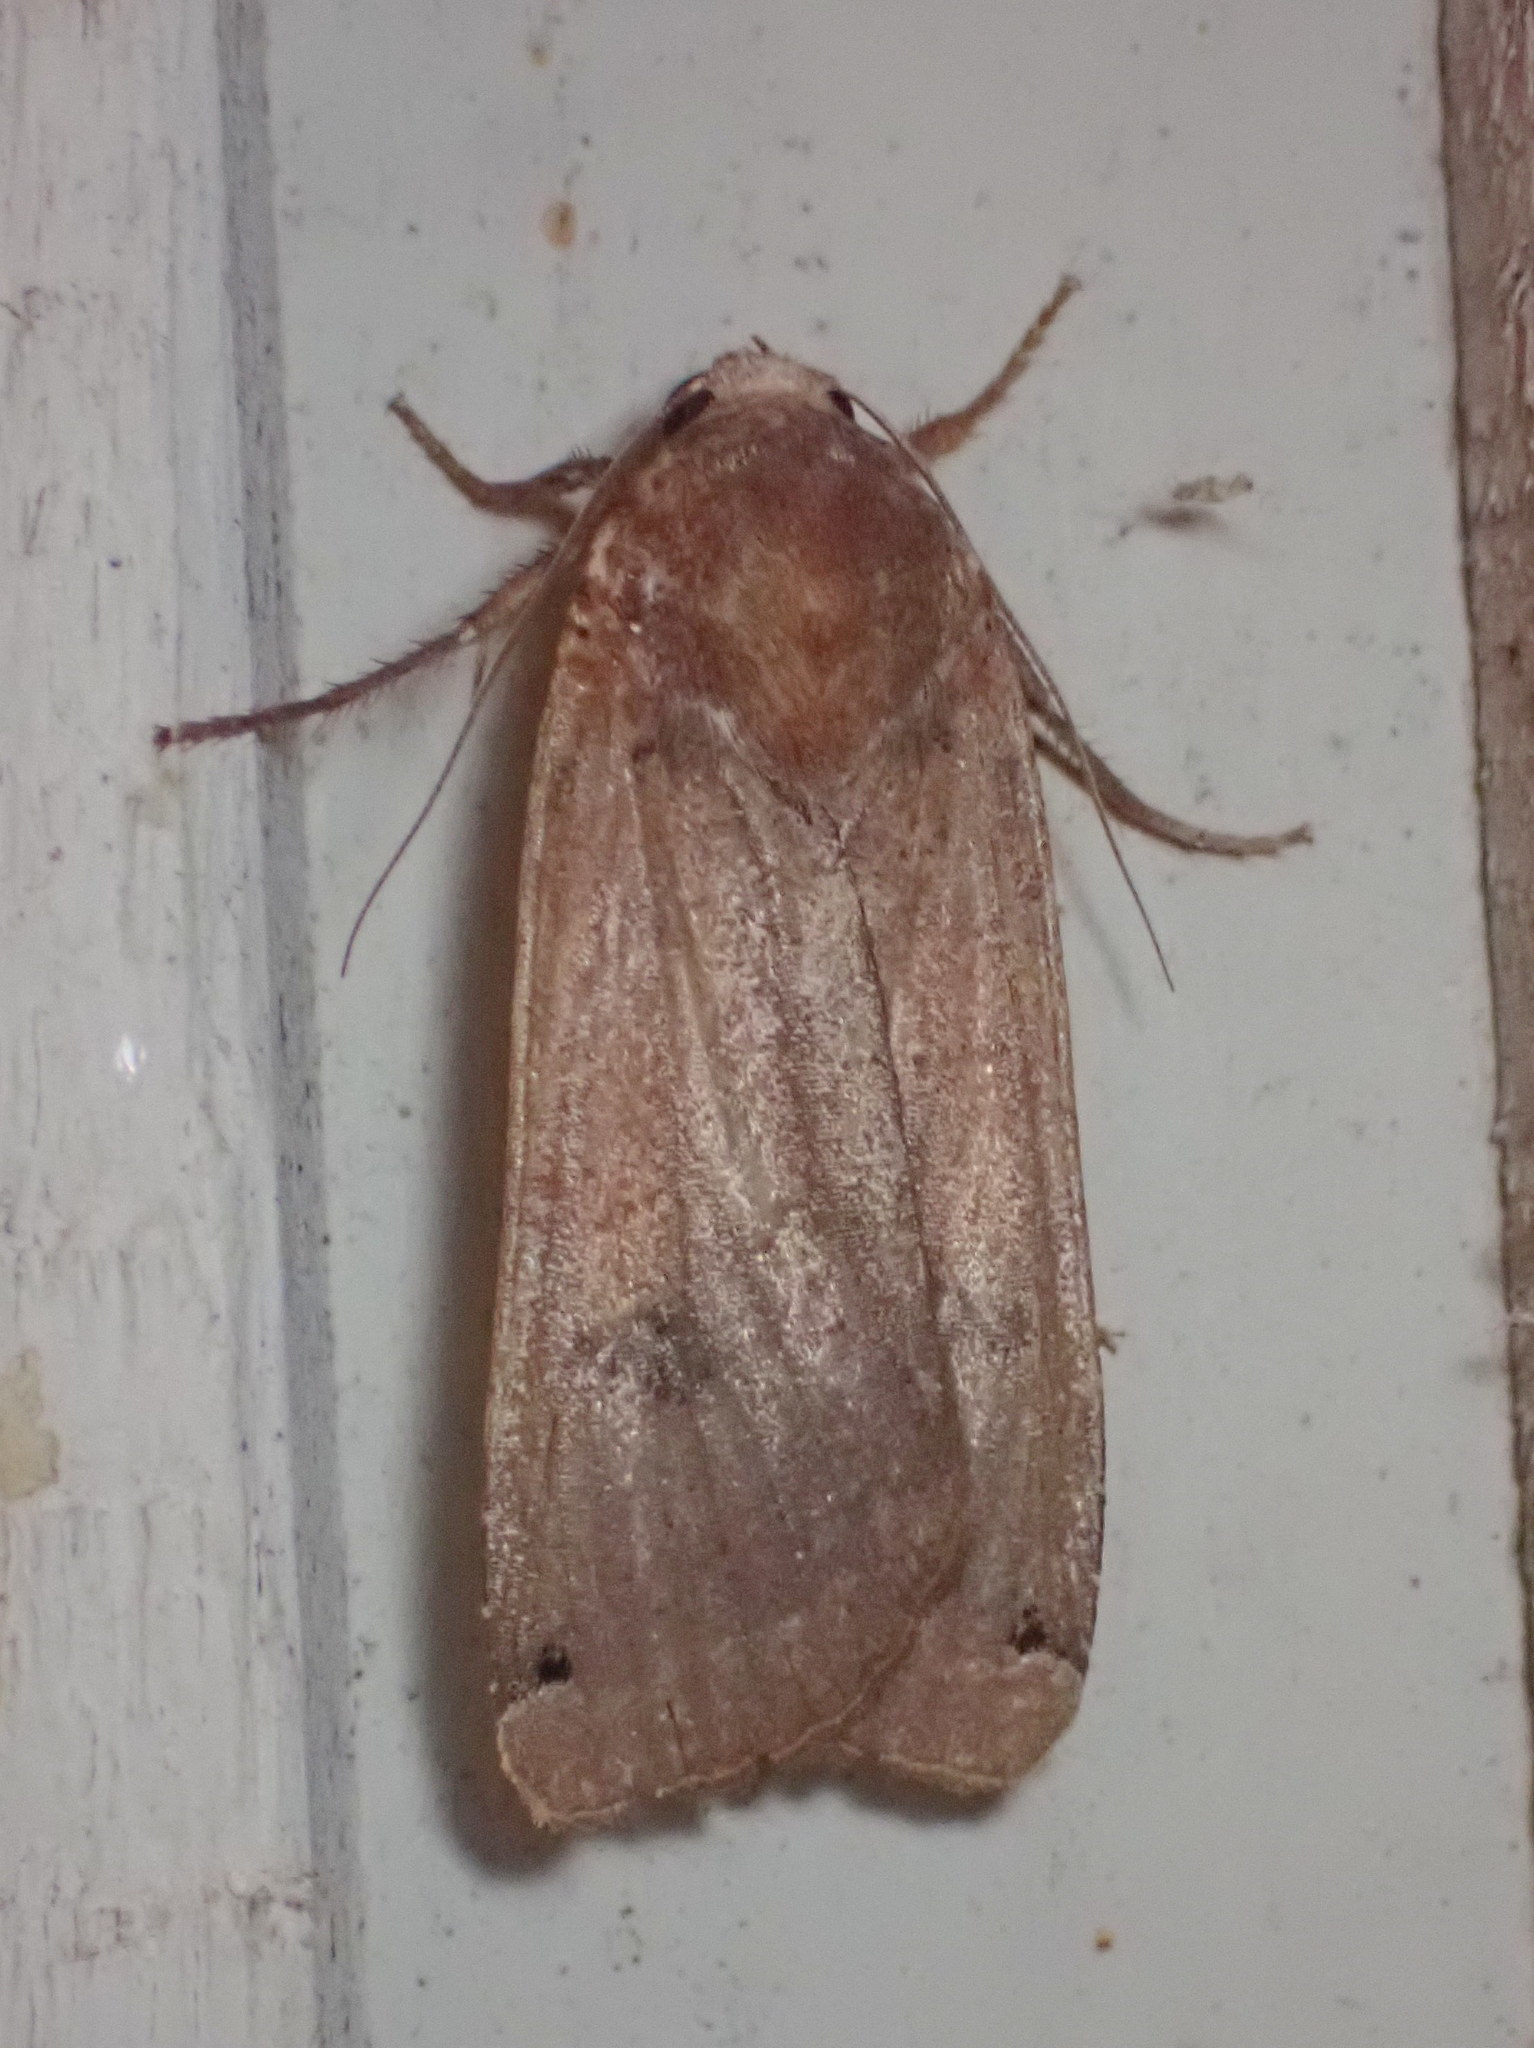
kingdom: Animalia
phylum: Arthropoda
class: Insecta
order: Lepidoptera
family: Noctuidae
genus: Noctua
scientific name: Noctua pronuba
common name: Large yellow underwing
